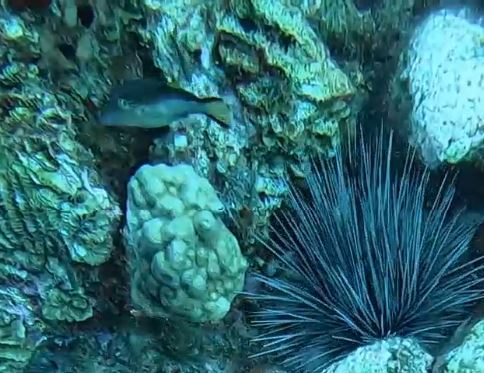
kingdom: Animalia
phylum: Chordata
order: Tetraodontiformes
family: Tetraodontidae
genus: Canthigaster
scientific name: Canthigaster rostrata
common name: Caribbean sharpnose-puffer
